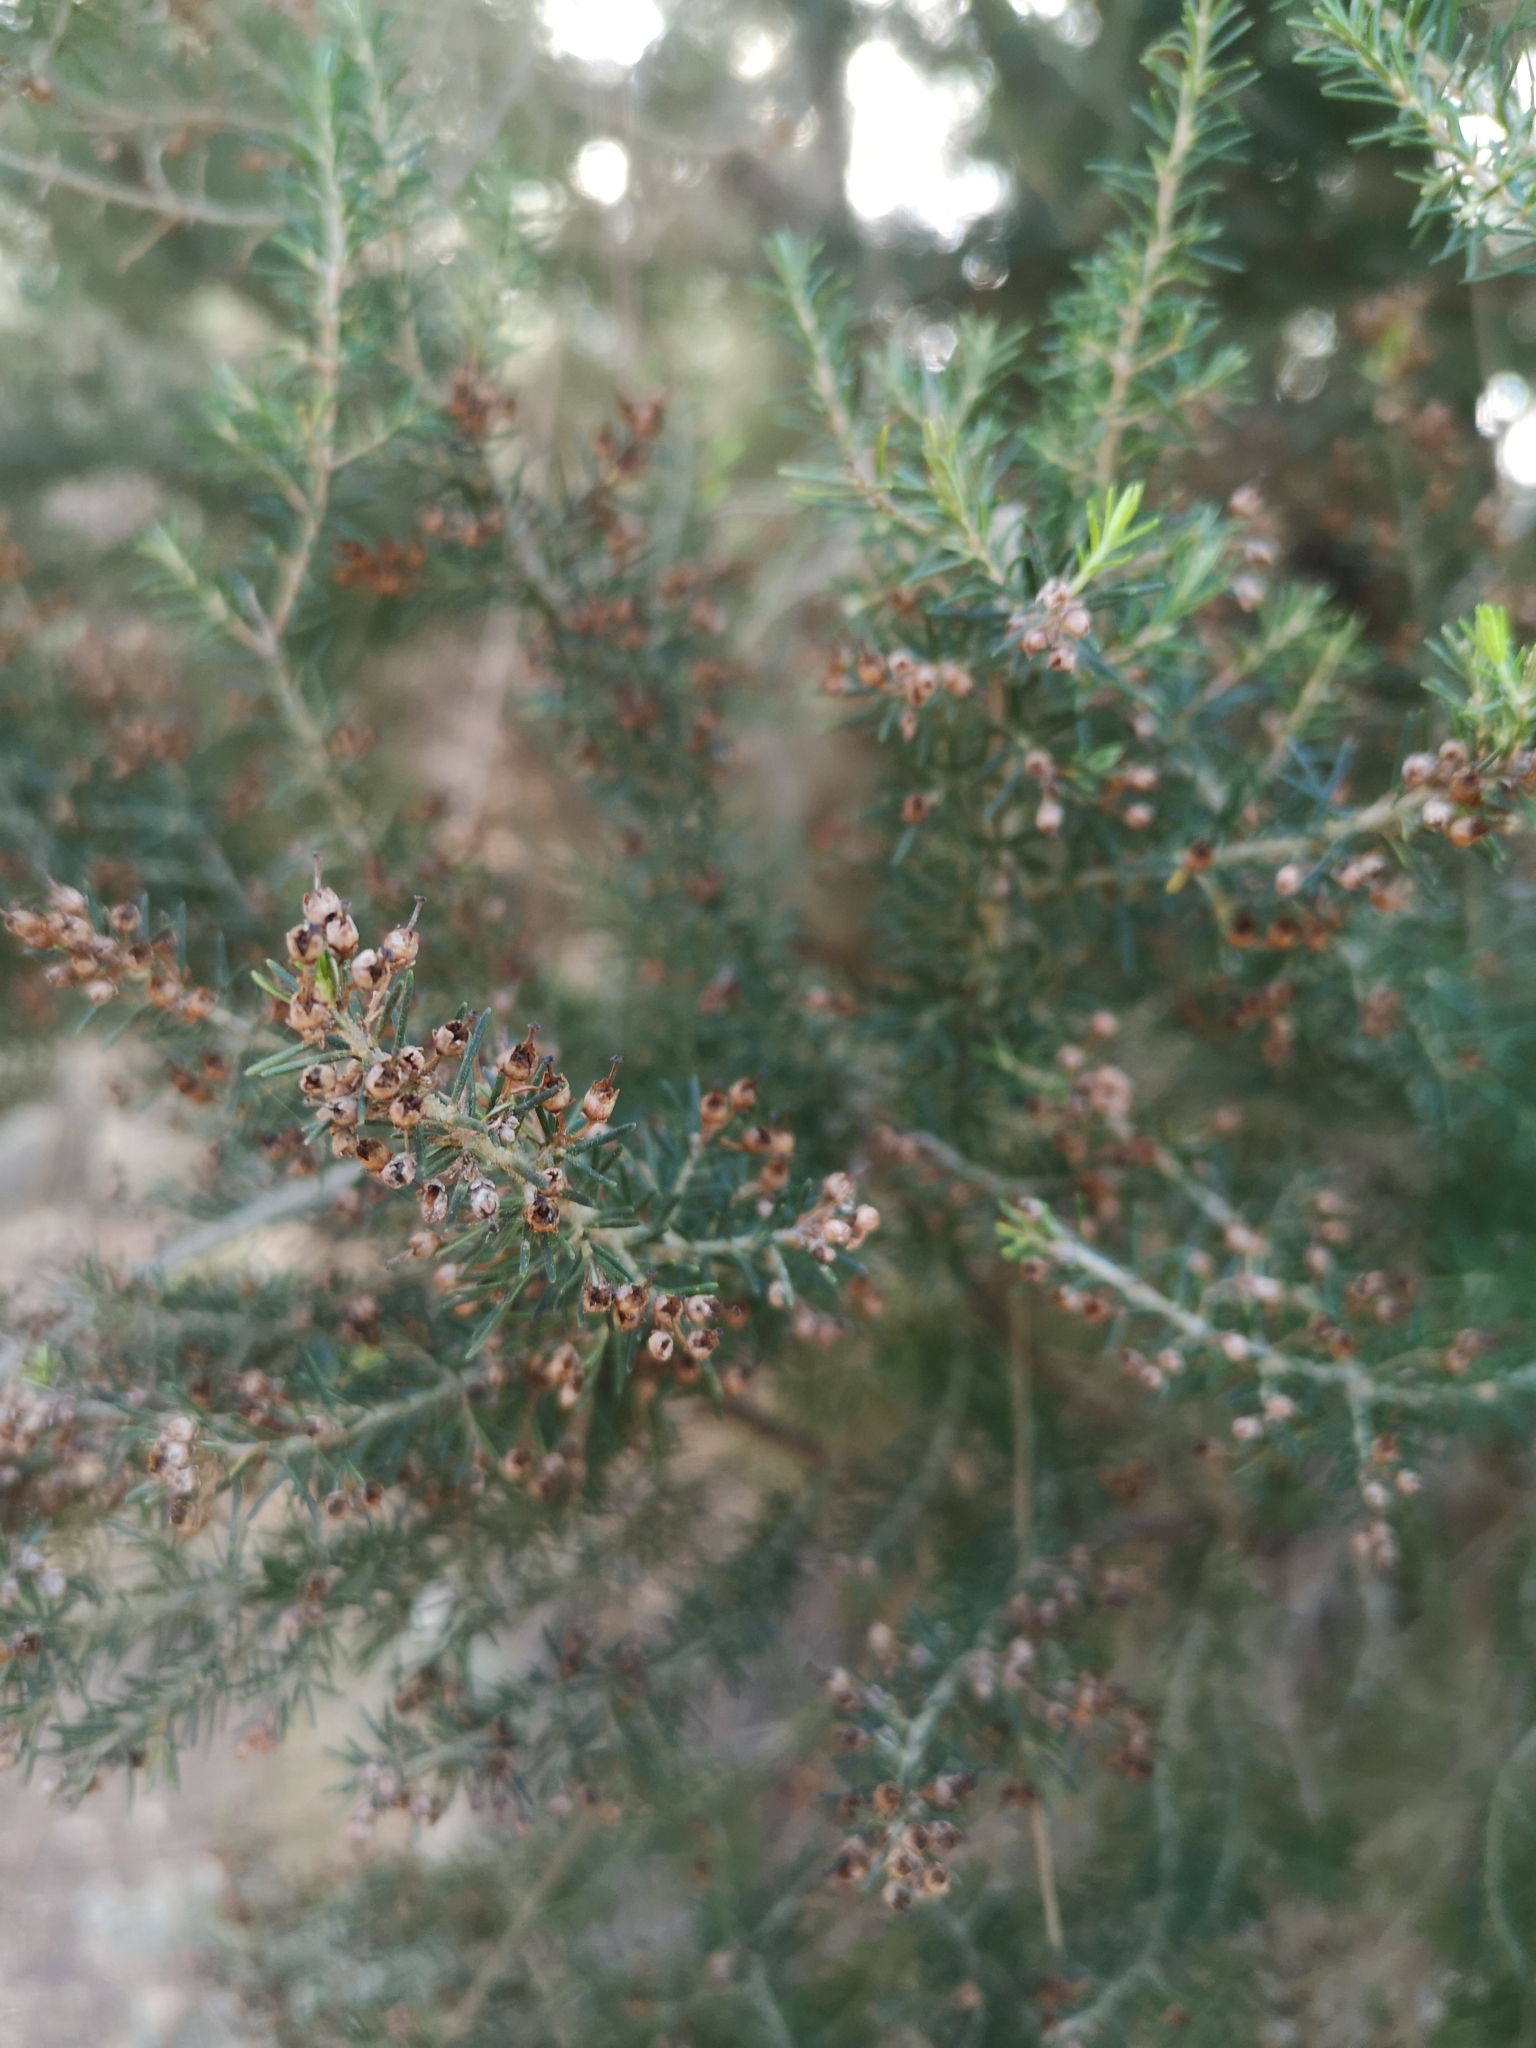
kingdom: Plantae
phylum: Tracheophyta
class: Magnoliopsida
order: Ericales
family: Ericaceae
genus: Erica
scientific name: Erica canariensis
